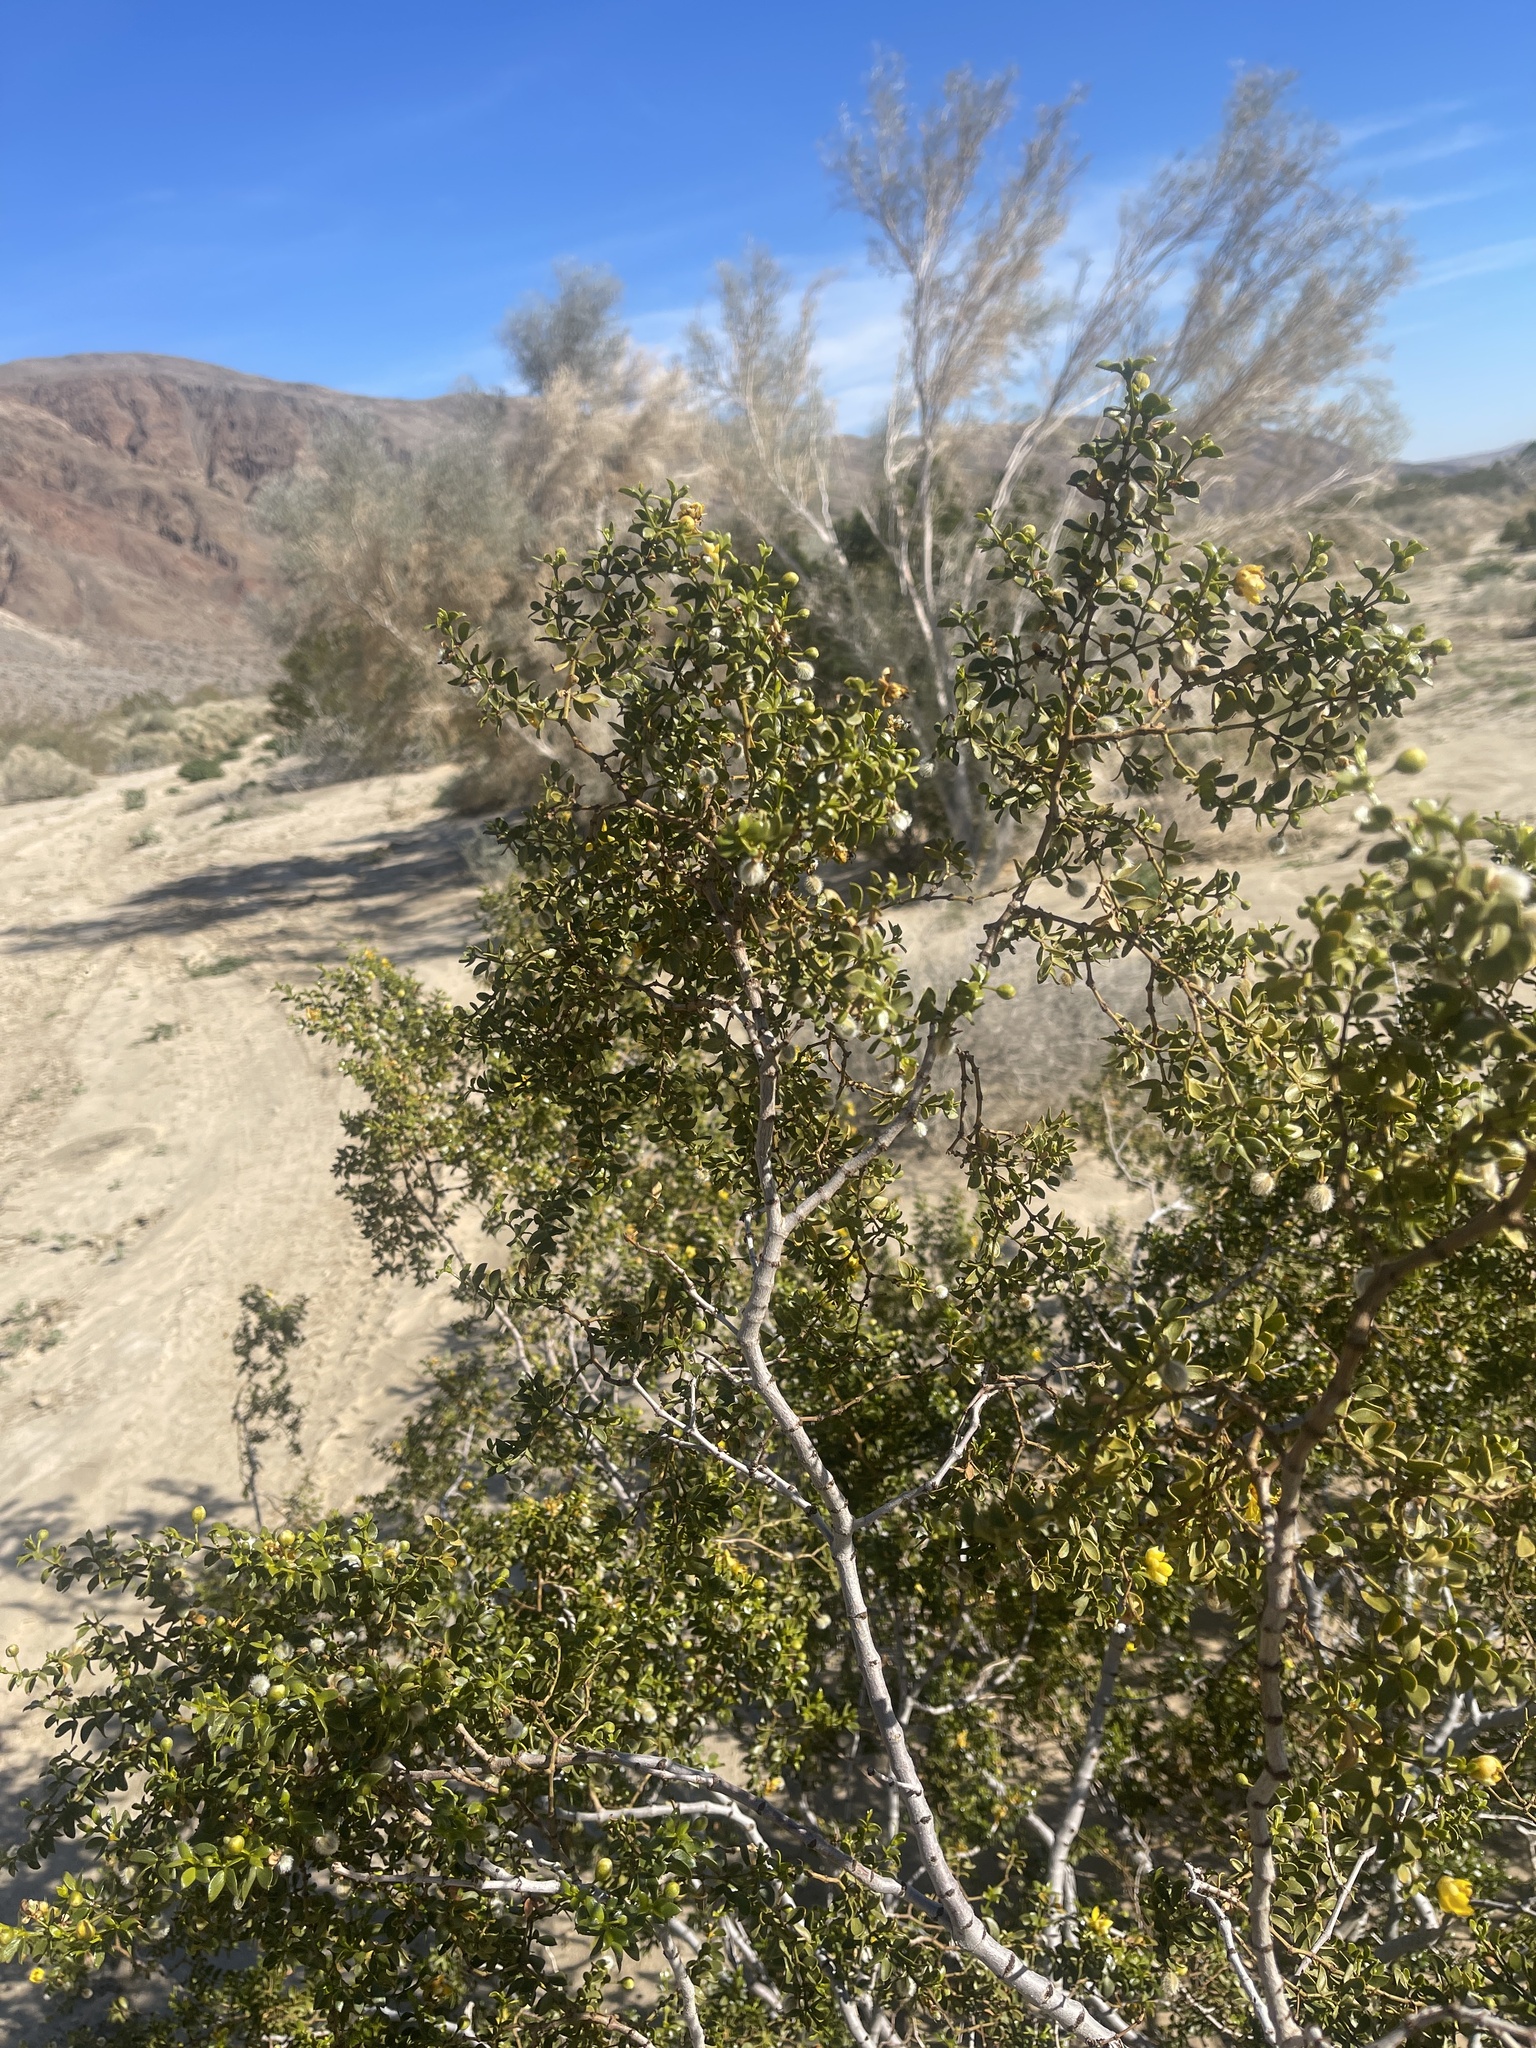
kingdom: Plantae
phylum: Tracheophyta
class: Magnoliopsida
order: Zygophyllales
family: Zygophyllaceae
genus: Larrea
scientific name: Larrea tridentata
